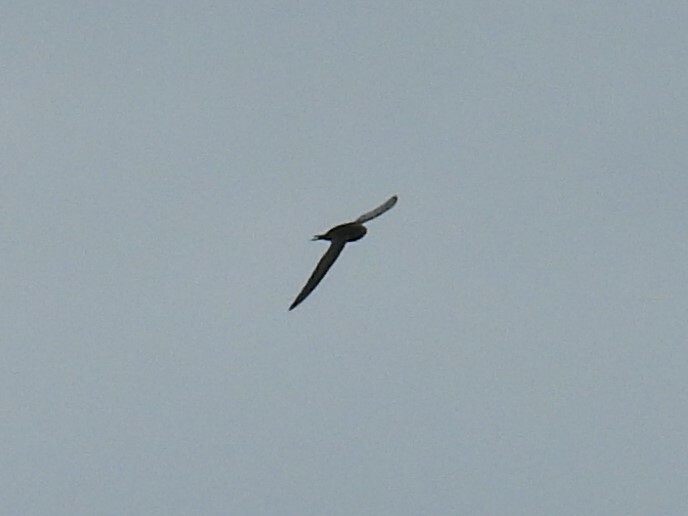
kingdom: Animalia
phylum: Chordata
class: Aves
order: Apodiformes
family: Apodidae
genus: Apus
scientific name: Apus apus
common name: Common swift
